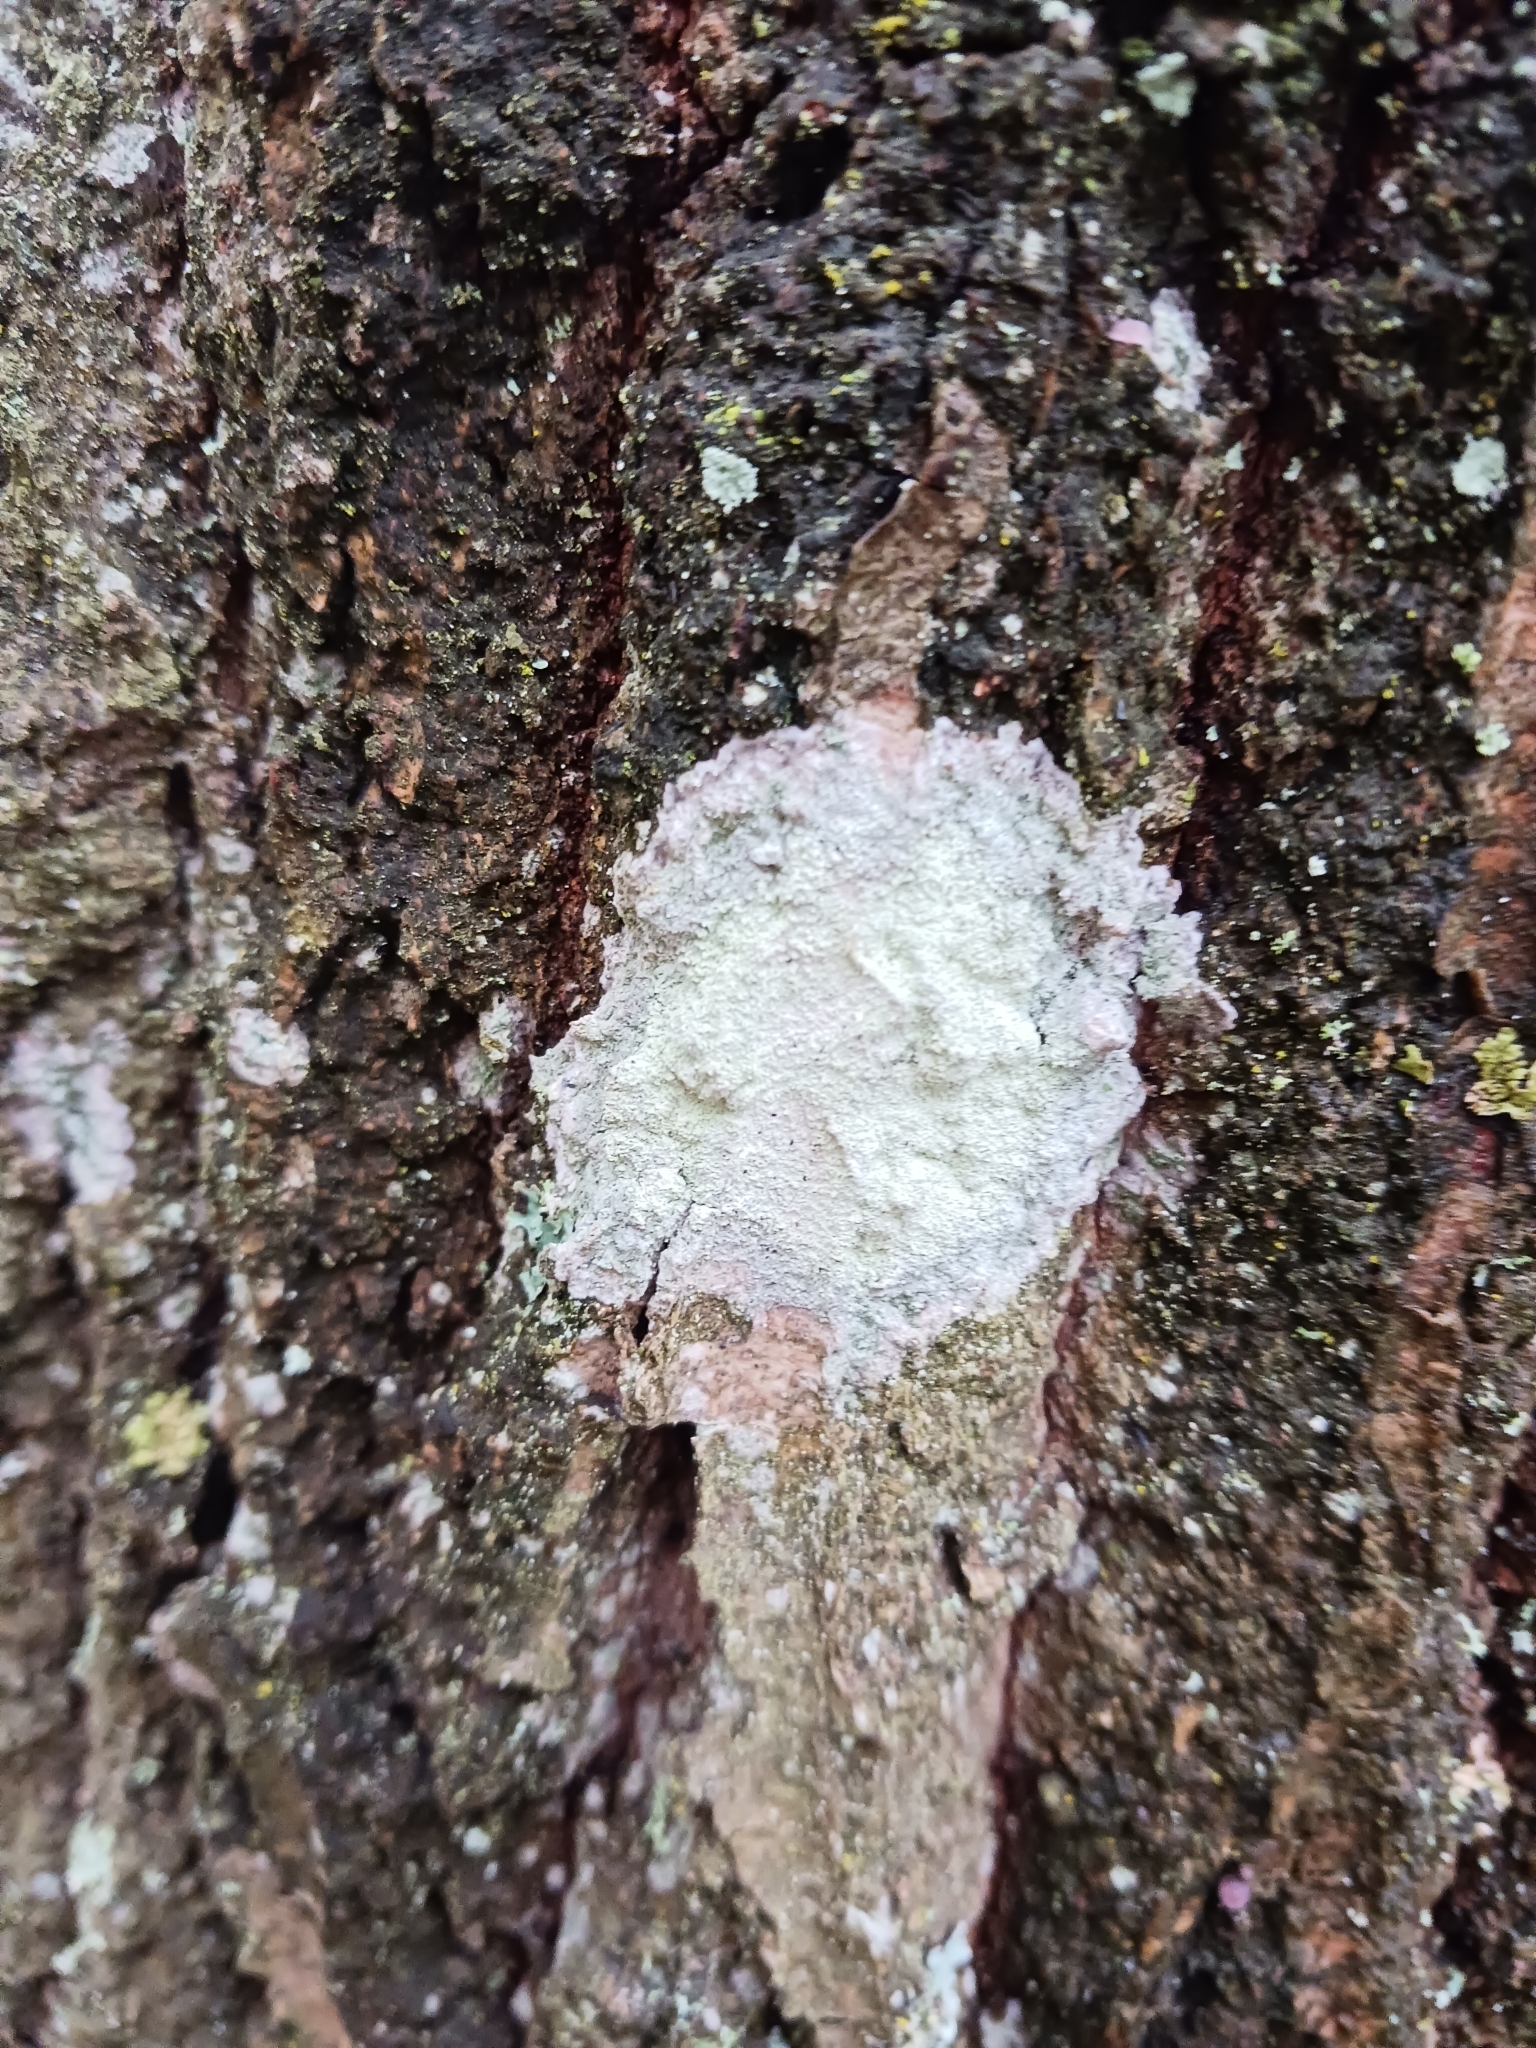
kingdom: Fungi
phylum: Ascomycota
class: Lecanoromycetes
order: Ostropales
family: Phlyctidaceae
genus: Phlyctis
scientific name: Phlyctis argena
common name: Whitewash lichen
